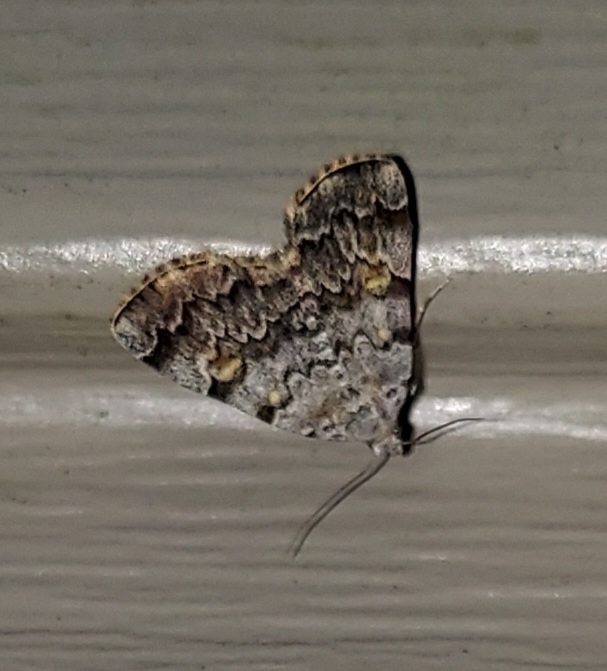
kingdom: Animalia
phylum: Arthropoda
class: Insecta
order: Lepidoptera
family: Erebidae
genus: Idia
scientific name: Idia americalis
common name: American idia moth
